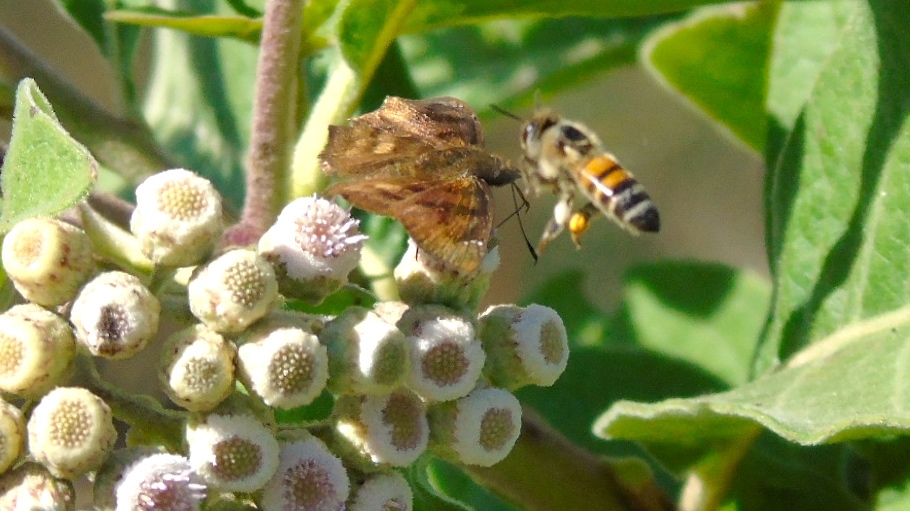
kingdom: Animalia
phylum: Arthropoda
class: Insecta
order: Hymenoptera
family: Apidae
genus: Apis
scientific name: Apis mellifera
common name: Honey bee
